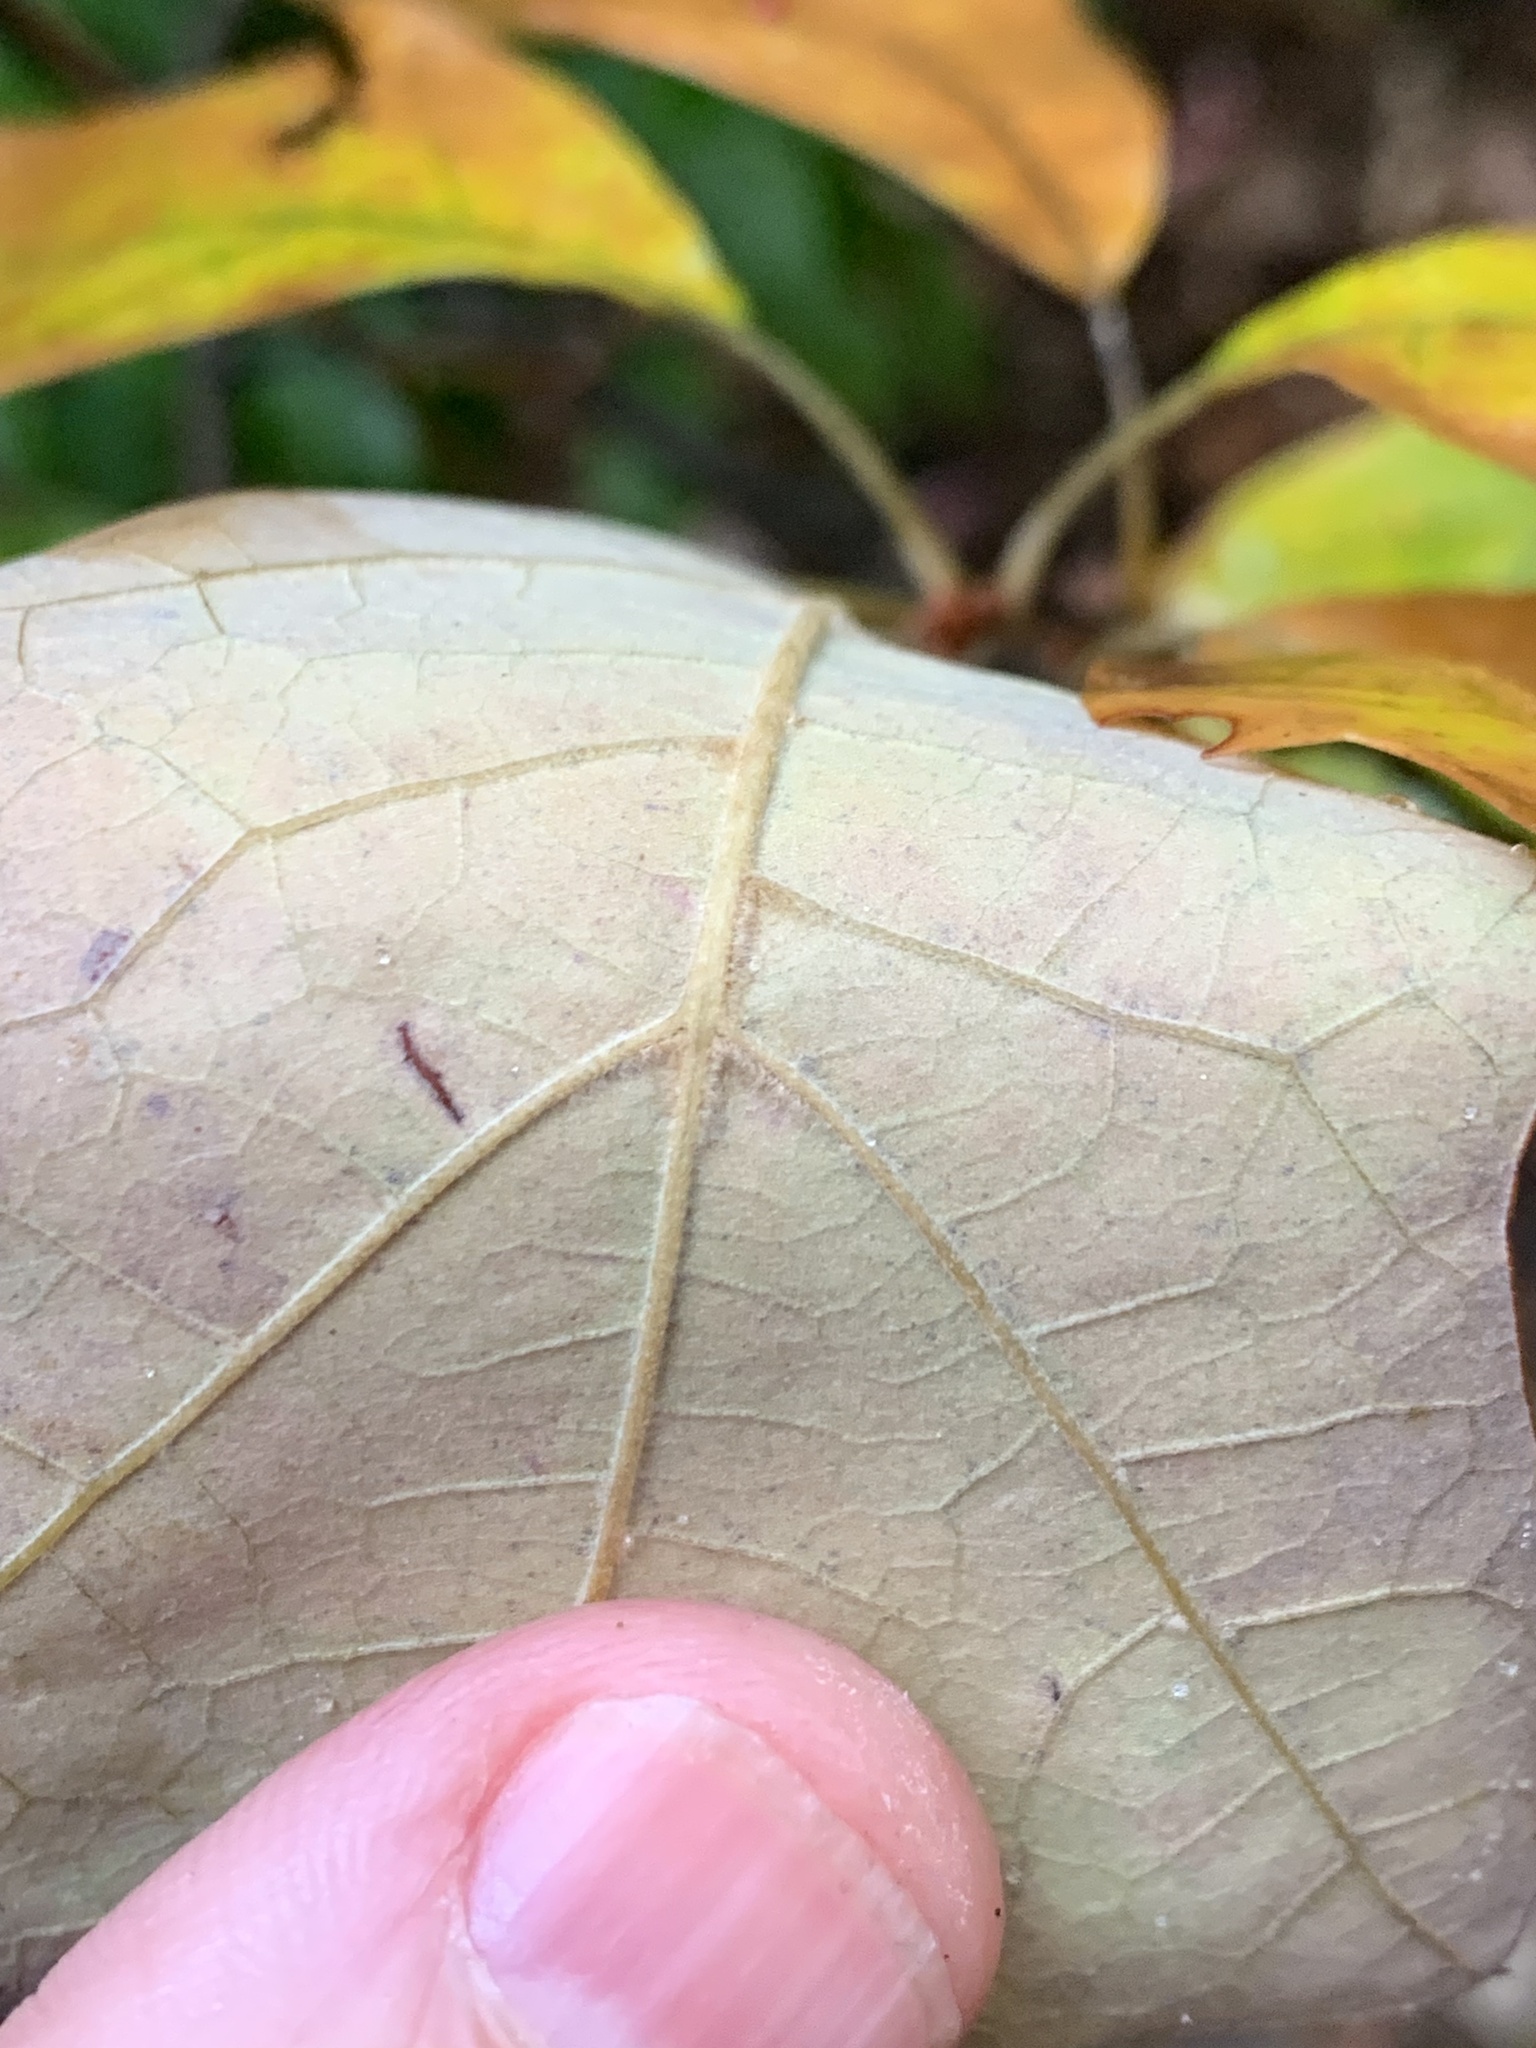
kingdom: Plantae
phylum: Tracheophyta
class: Magnoliopsida
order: Fagales
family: Fagaceae
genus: Quercus
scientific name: Quercus ilicifolia
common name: Bear oak
